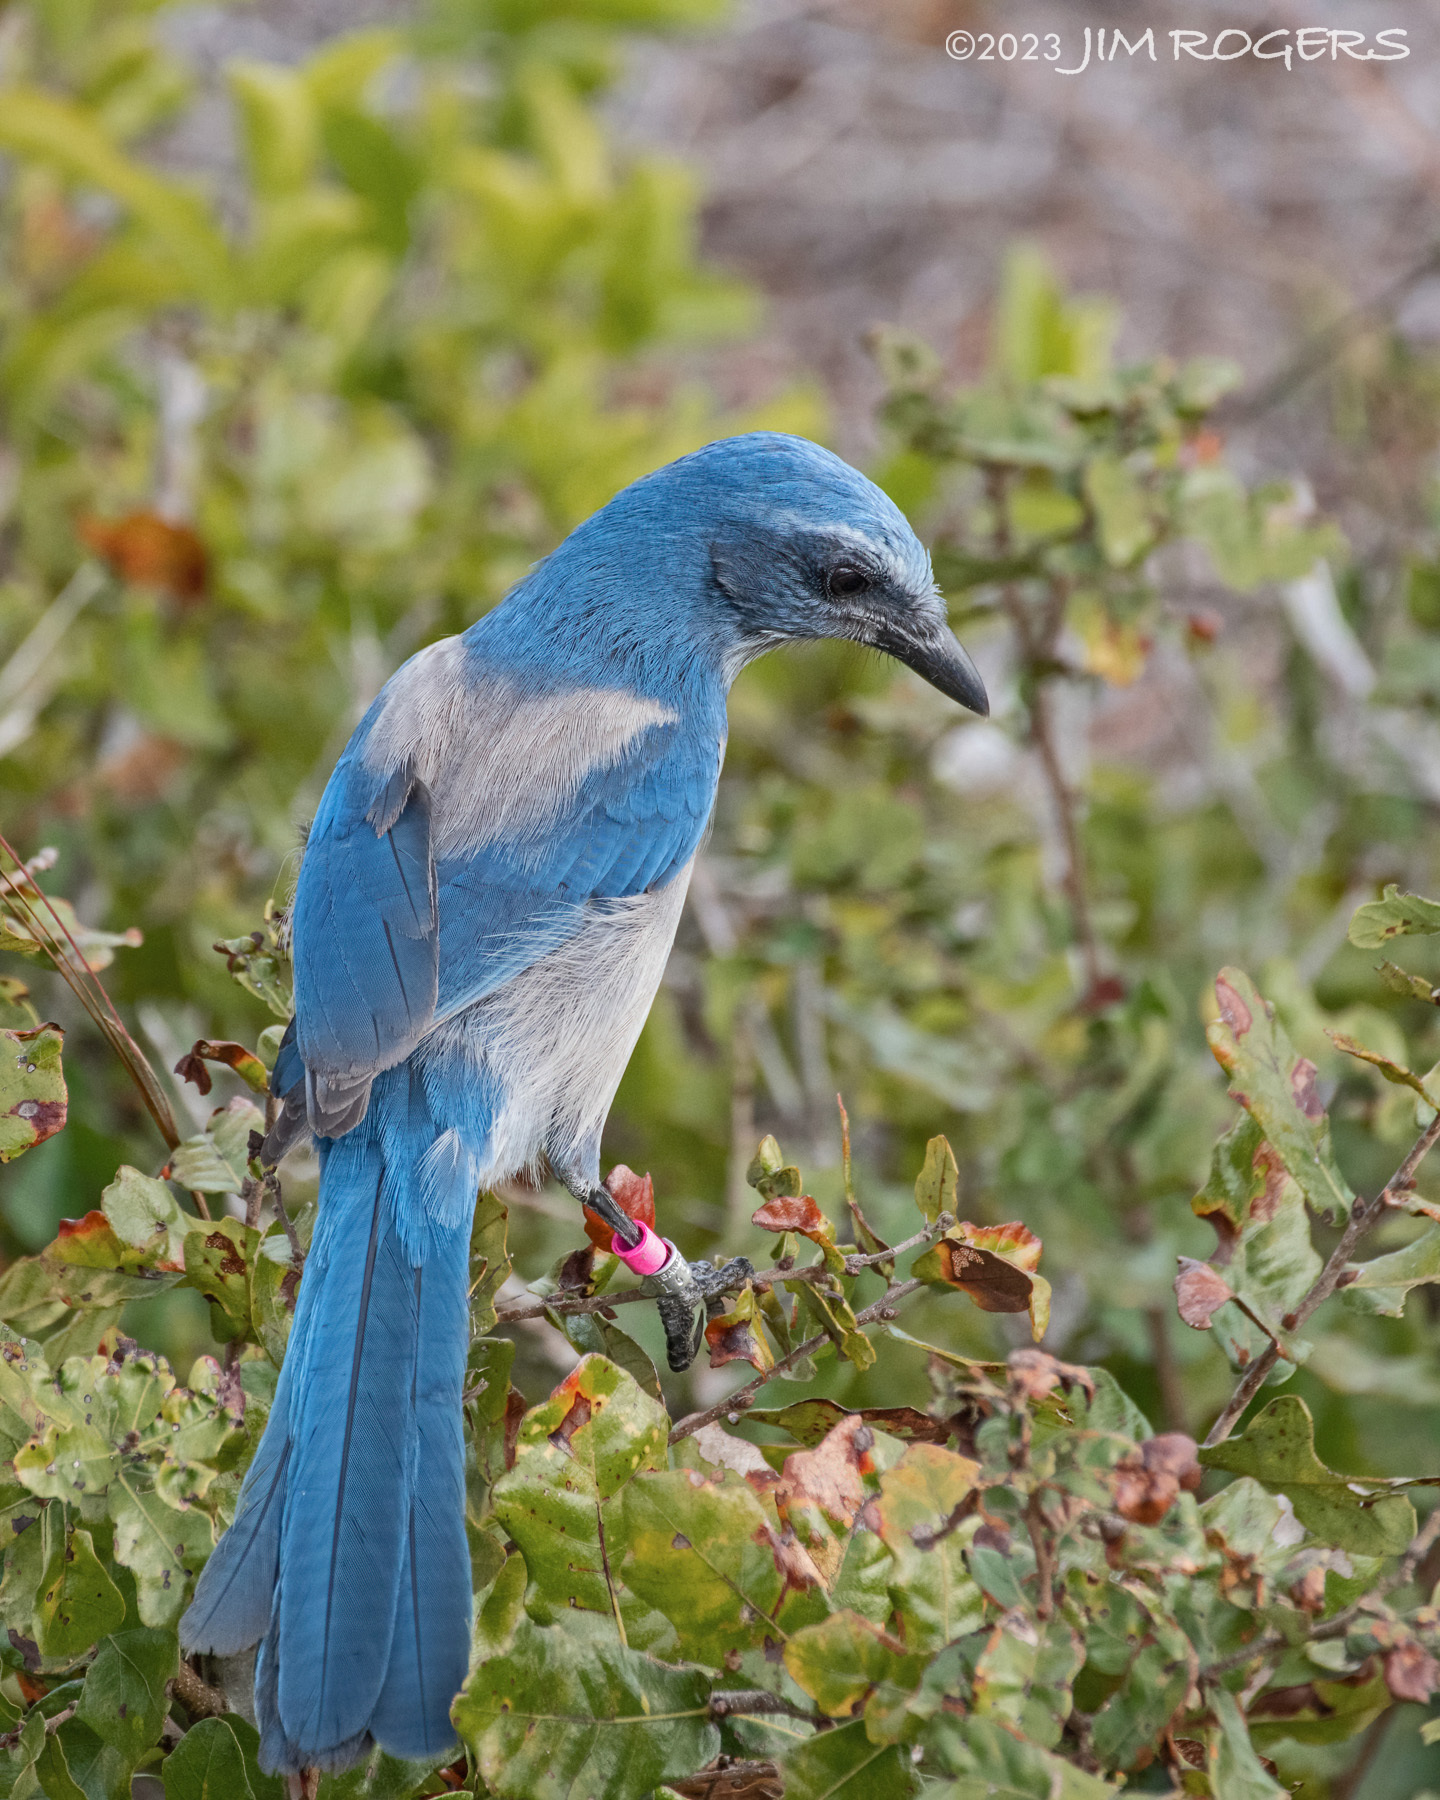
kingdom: Animalia
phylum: Chordata
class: Aves
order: Passeriformes
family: Corvidae
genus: Aphelocoma
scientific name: Aphelocoma coerulescens
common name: Florida scrub jay
